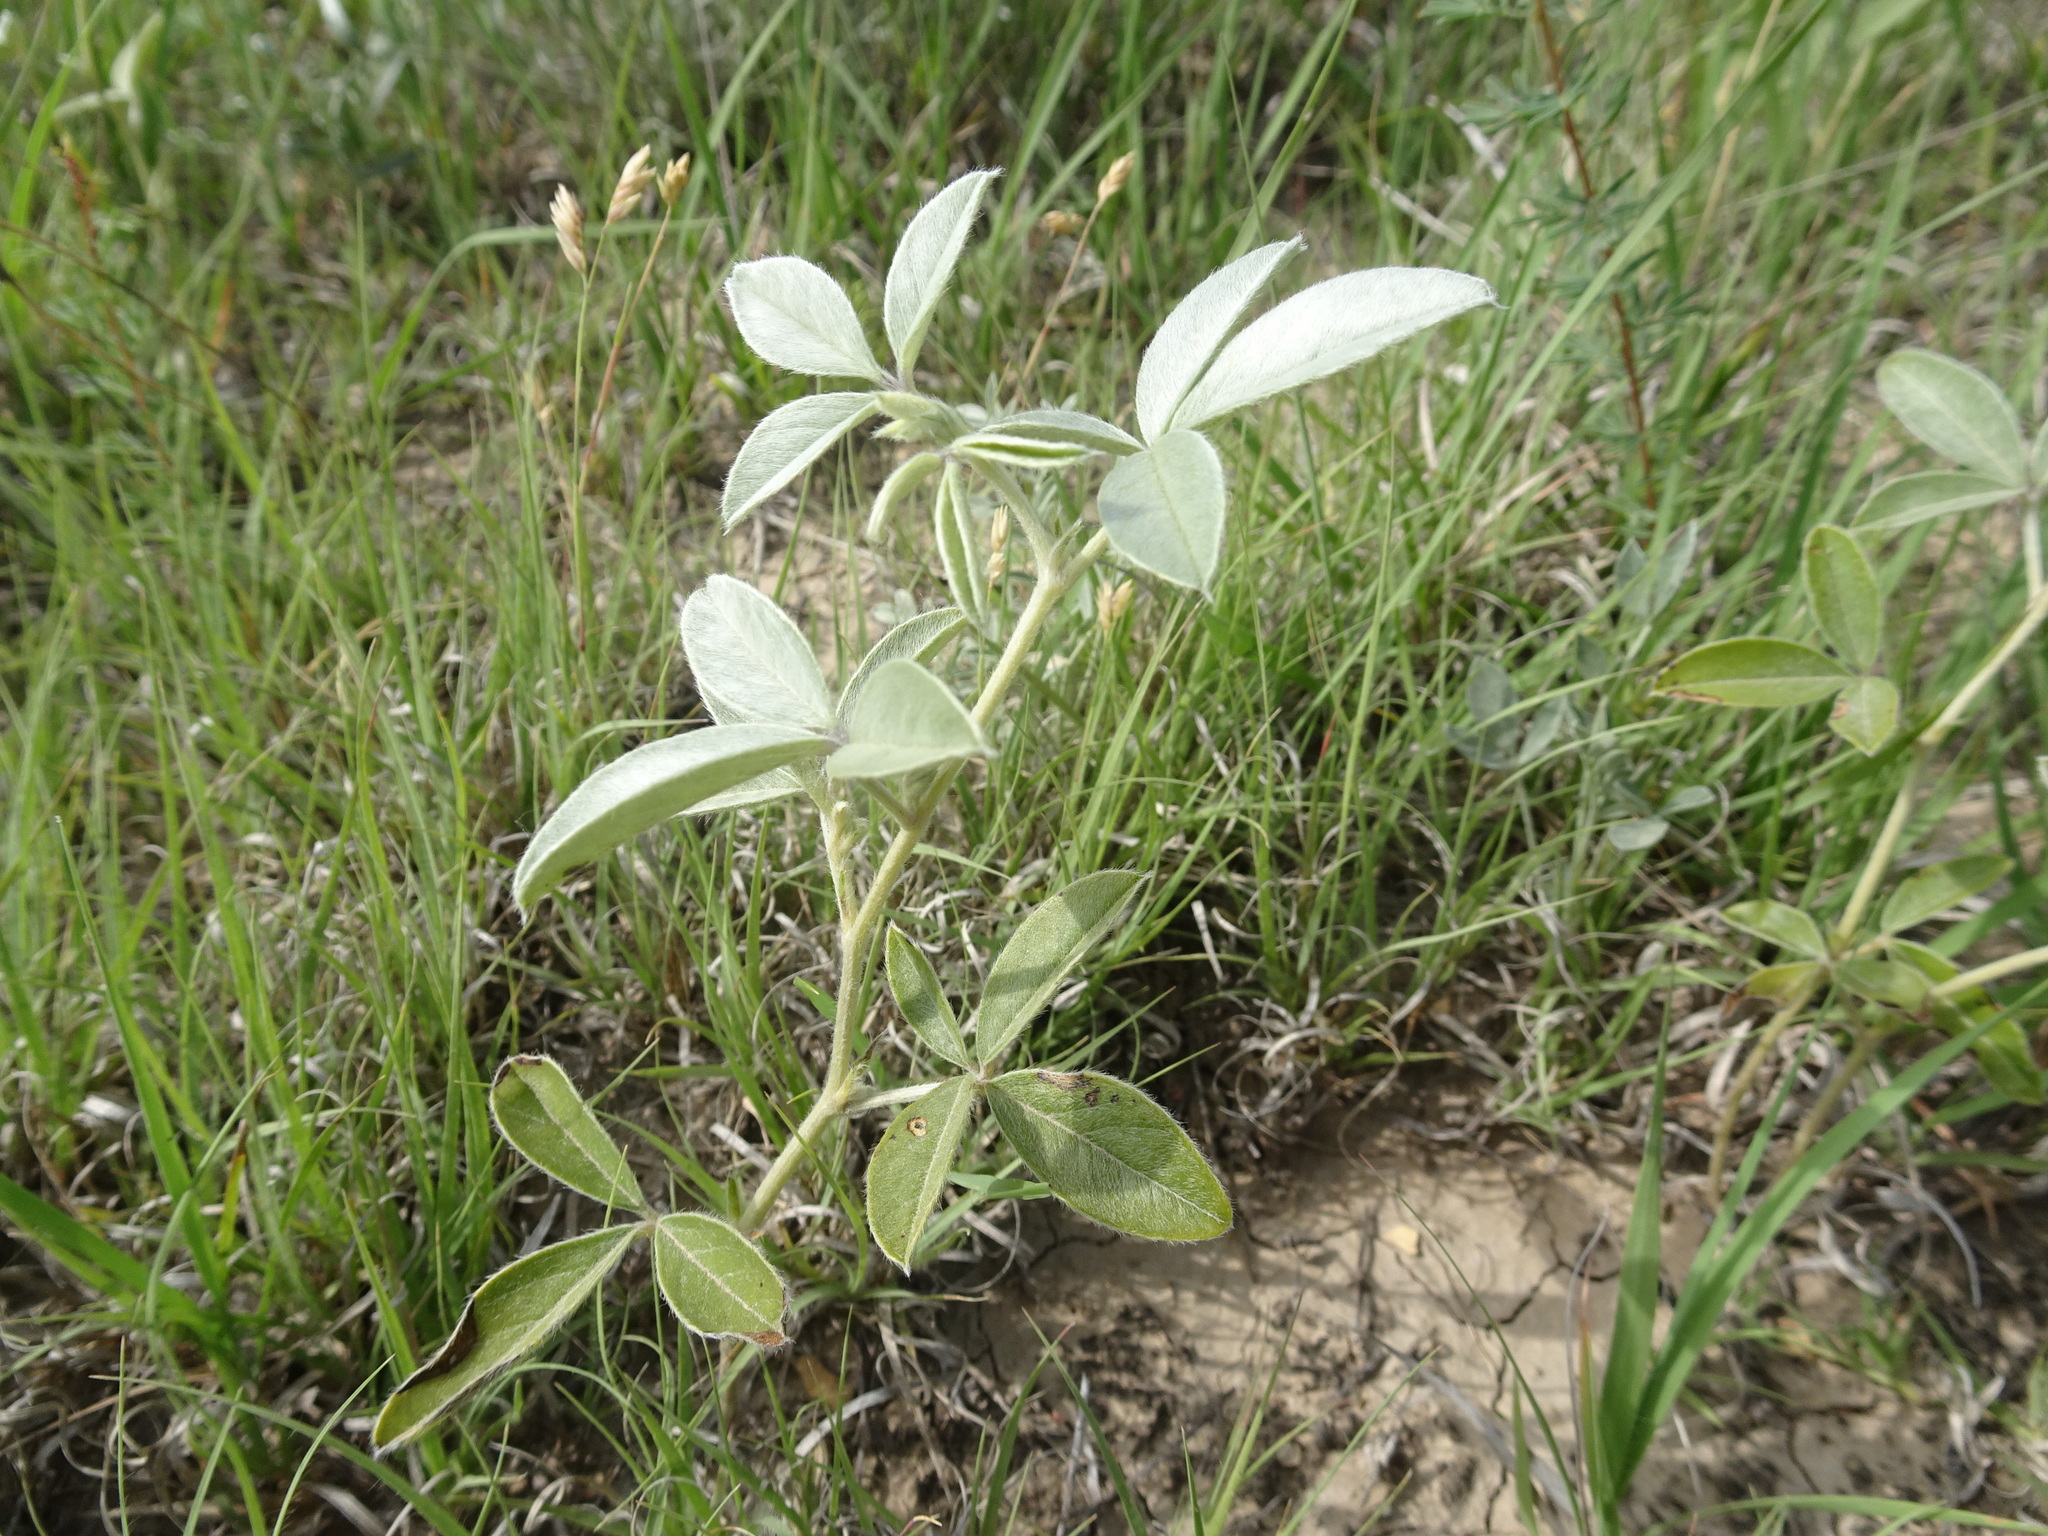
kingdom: Plantae
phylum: Tracheophyta
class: Magnoliopsida
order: Fabales
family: Fabaceae
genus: Pediomelum
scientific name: Pediomelum argophyllum
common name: Silver-leaved indian breadroot
